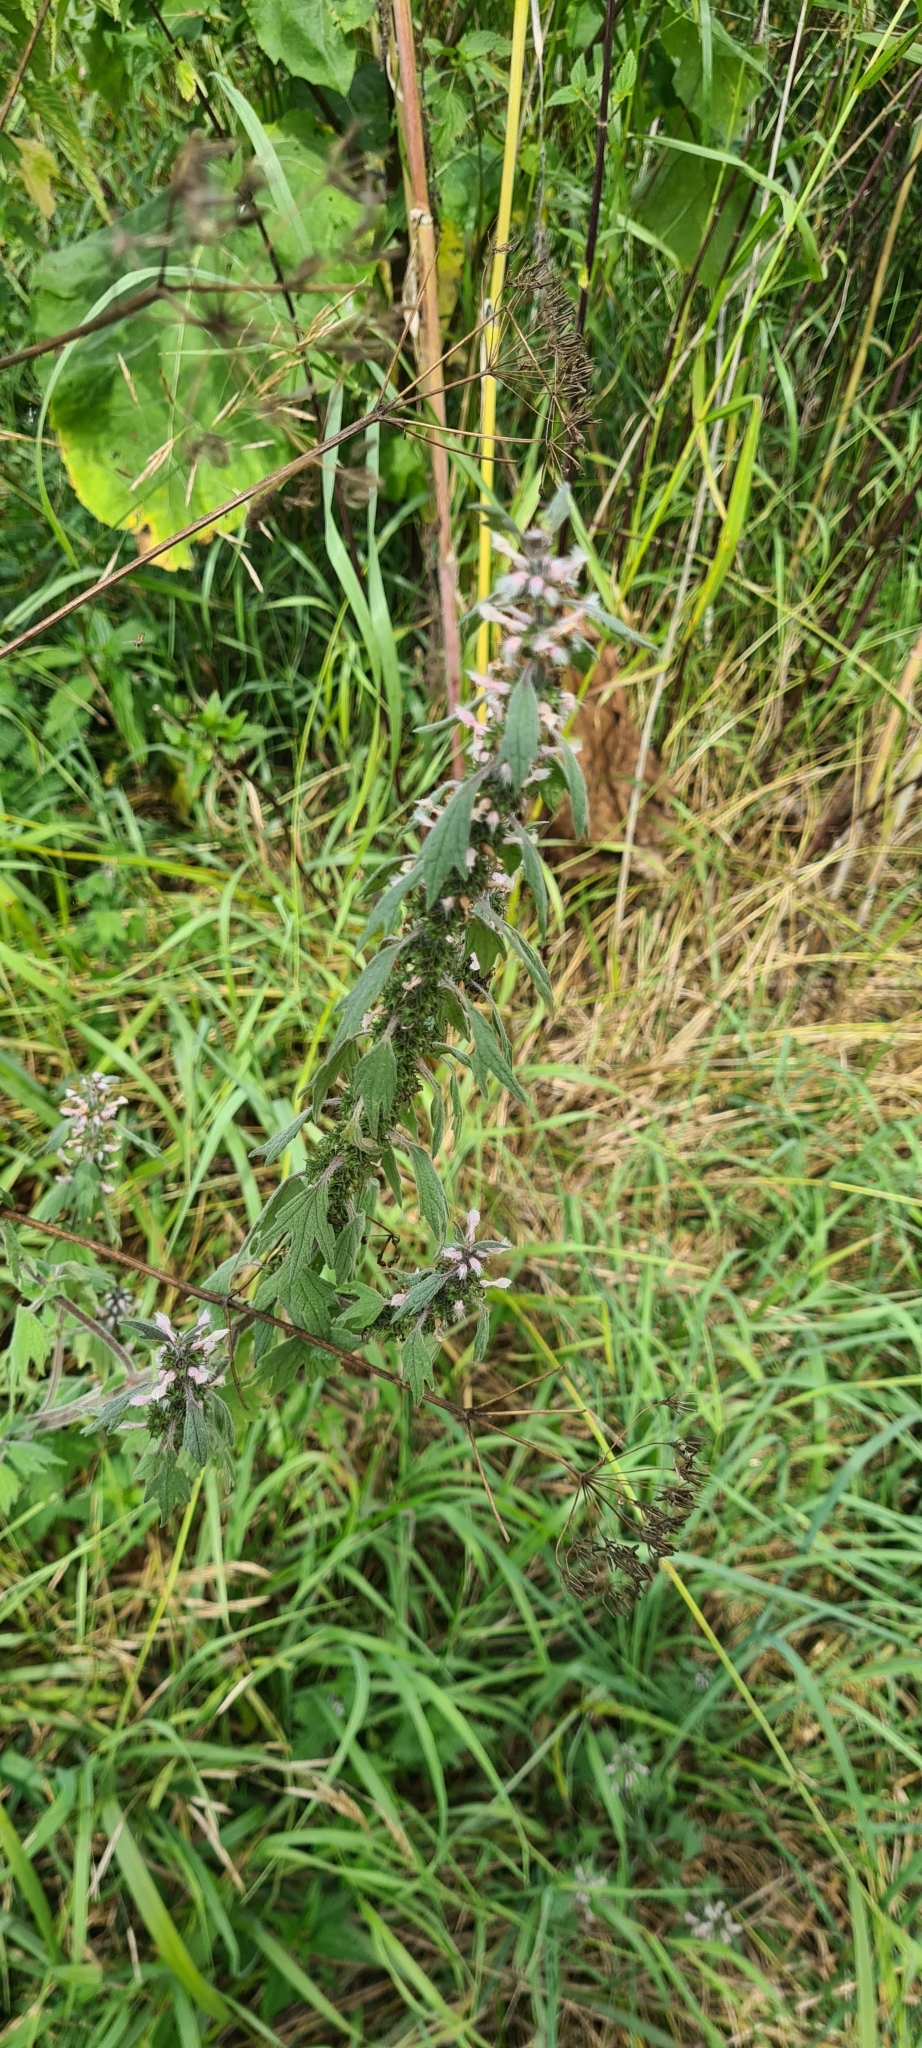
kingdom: Plantae
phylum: Tracheophyta
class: Magnoliopsida
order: Lamiales
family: Lamiaceae
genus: Leonurus
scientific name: Leonurus quinquelobatus
